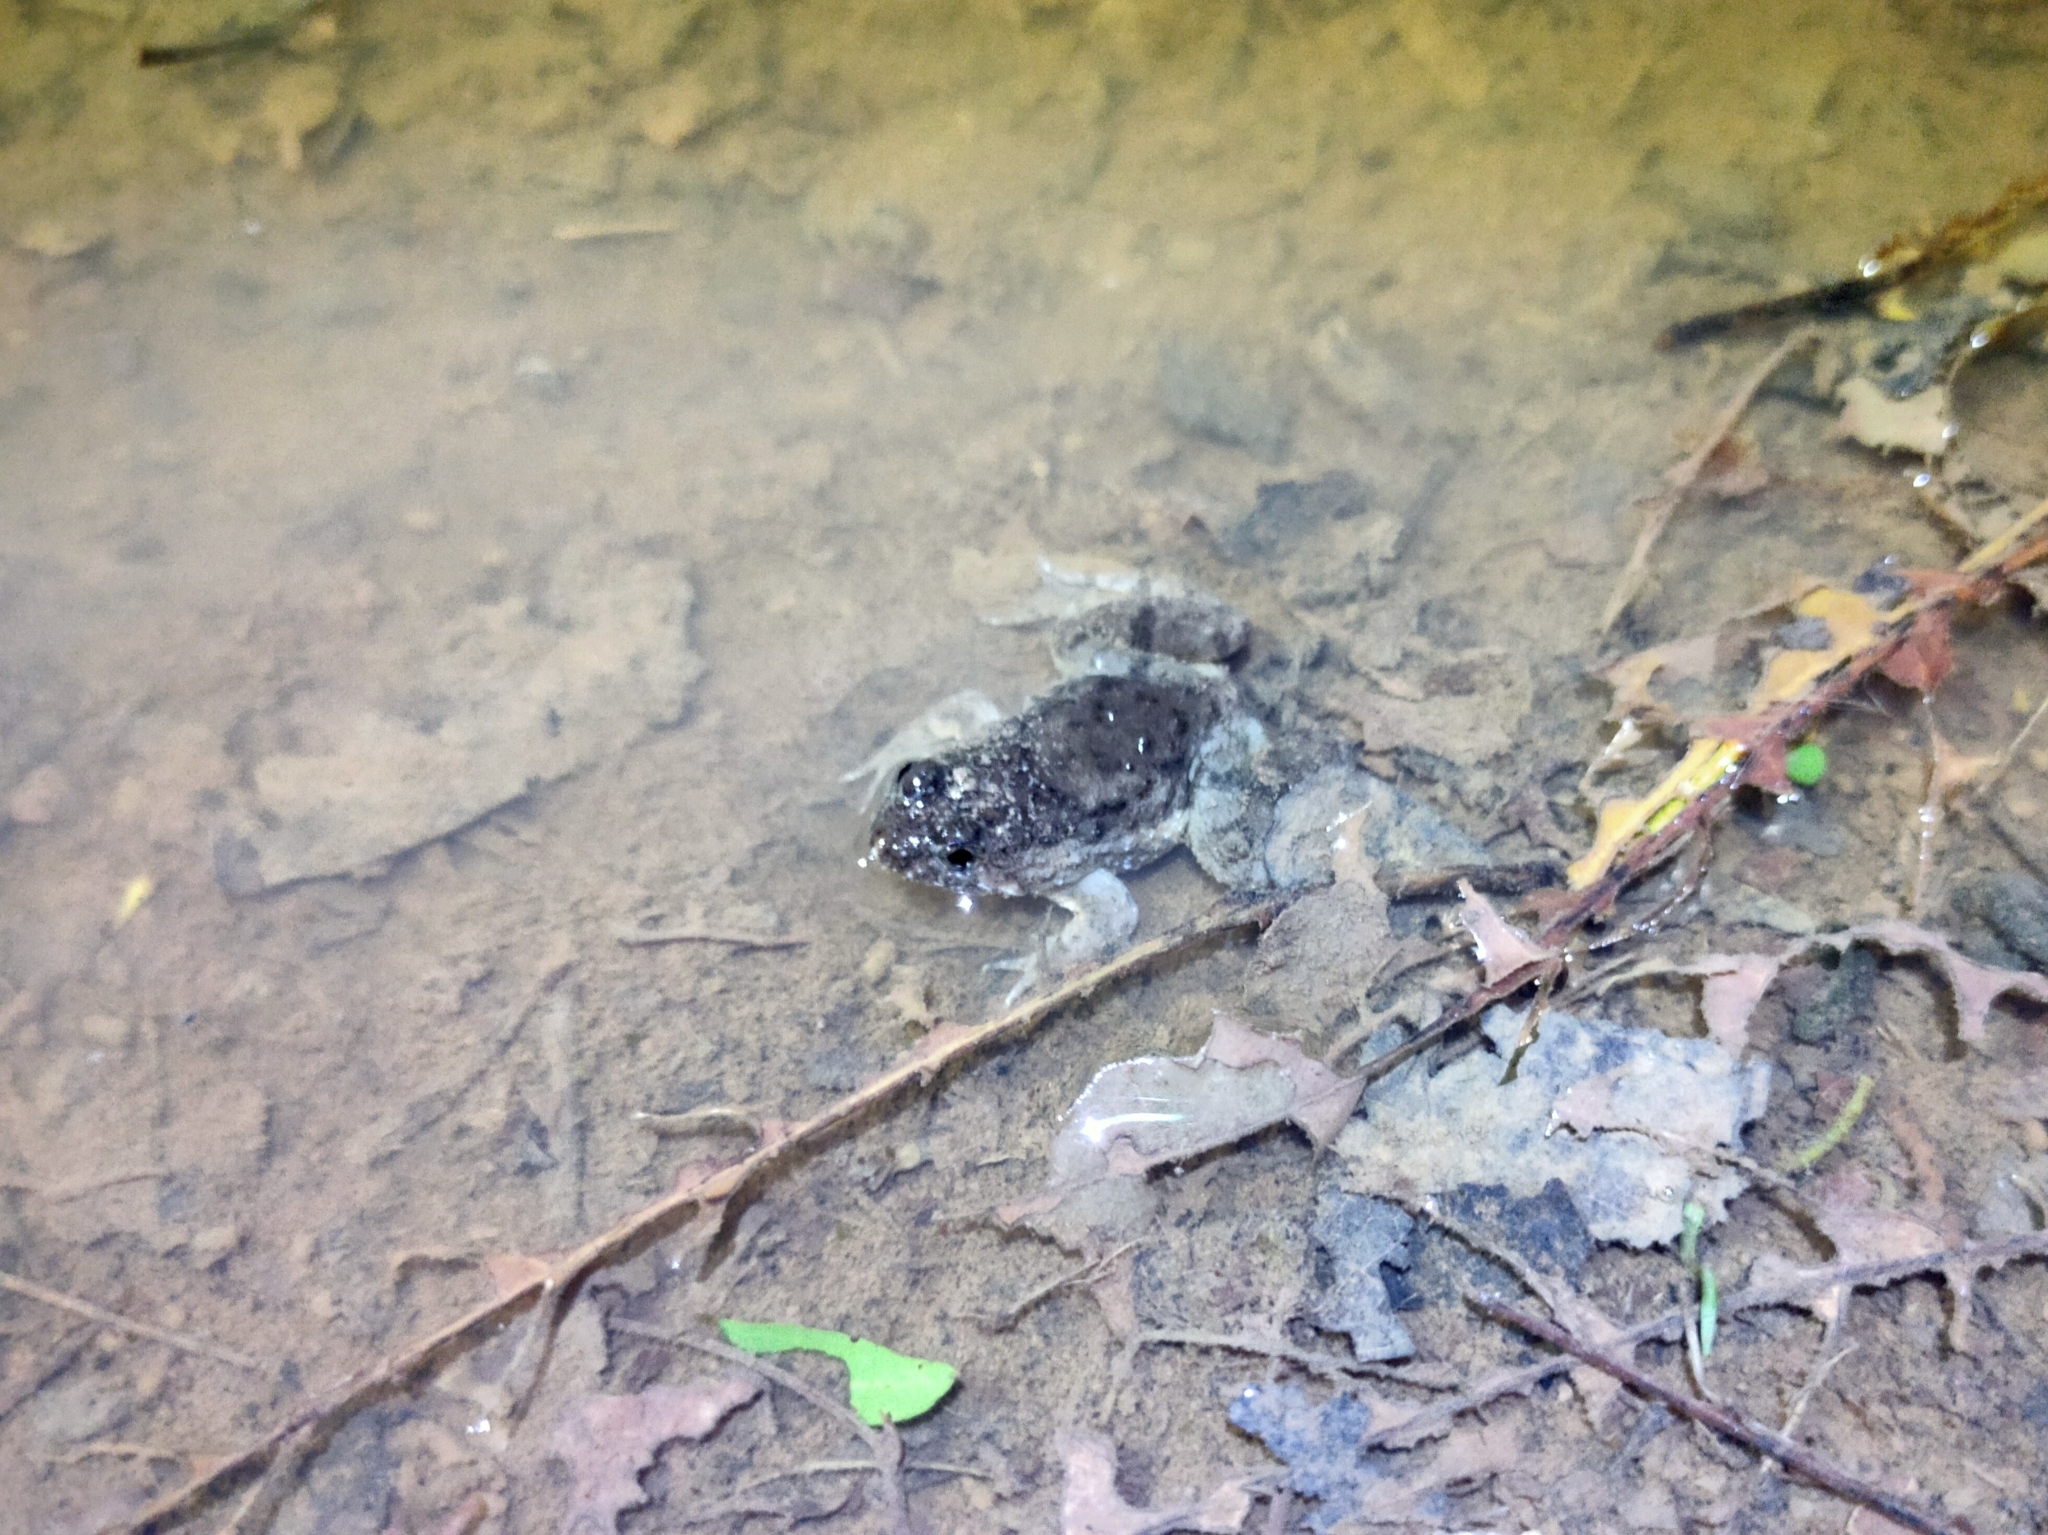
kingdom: Animalia
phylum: Chordata
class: Amphibia
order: Anura
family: Dicroglossidae
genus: Occidozyga
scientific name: Occidozyga martensii
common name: Marten’s oriental frog/round-tongued floating frog
